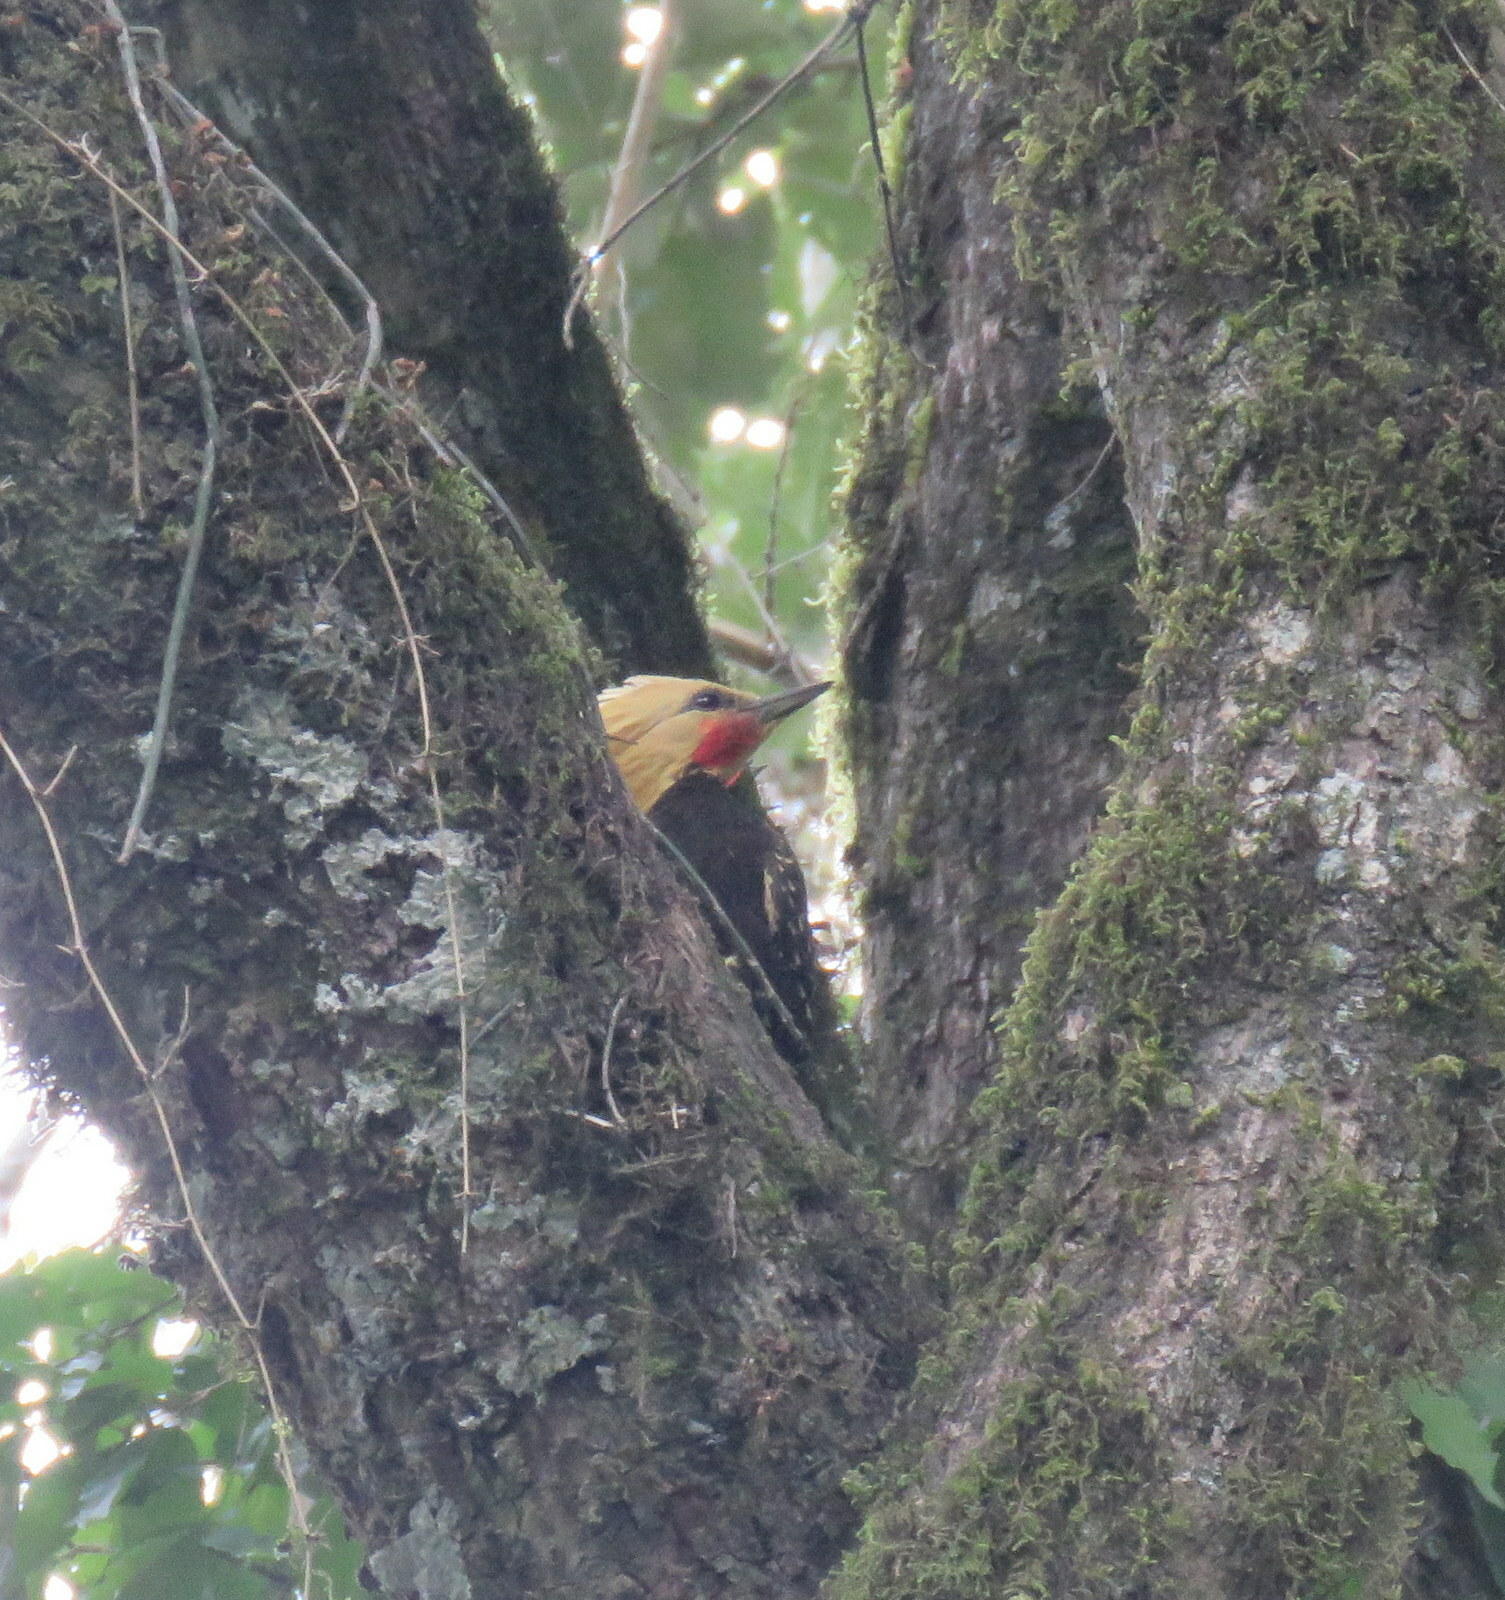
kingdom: Animalia
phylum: Chordata
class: Aves
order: Piciformes
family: Picidae
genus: Celeus
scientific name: Celeus flavescens
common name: Blond-crested woodpecker
